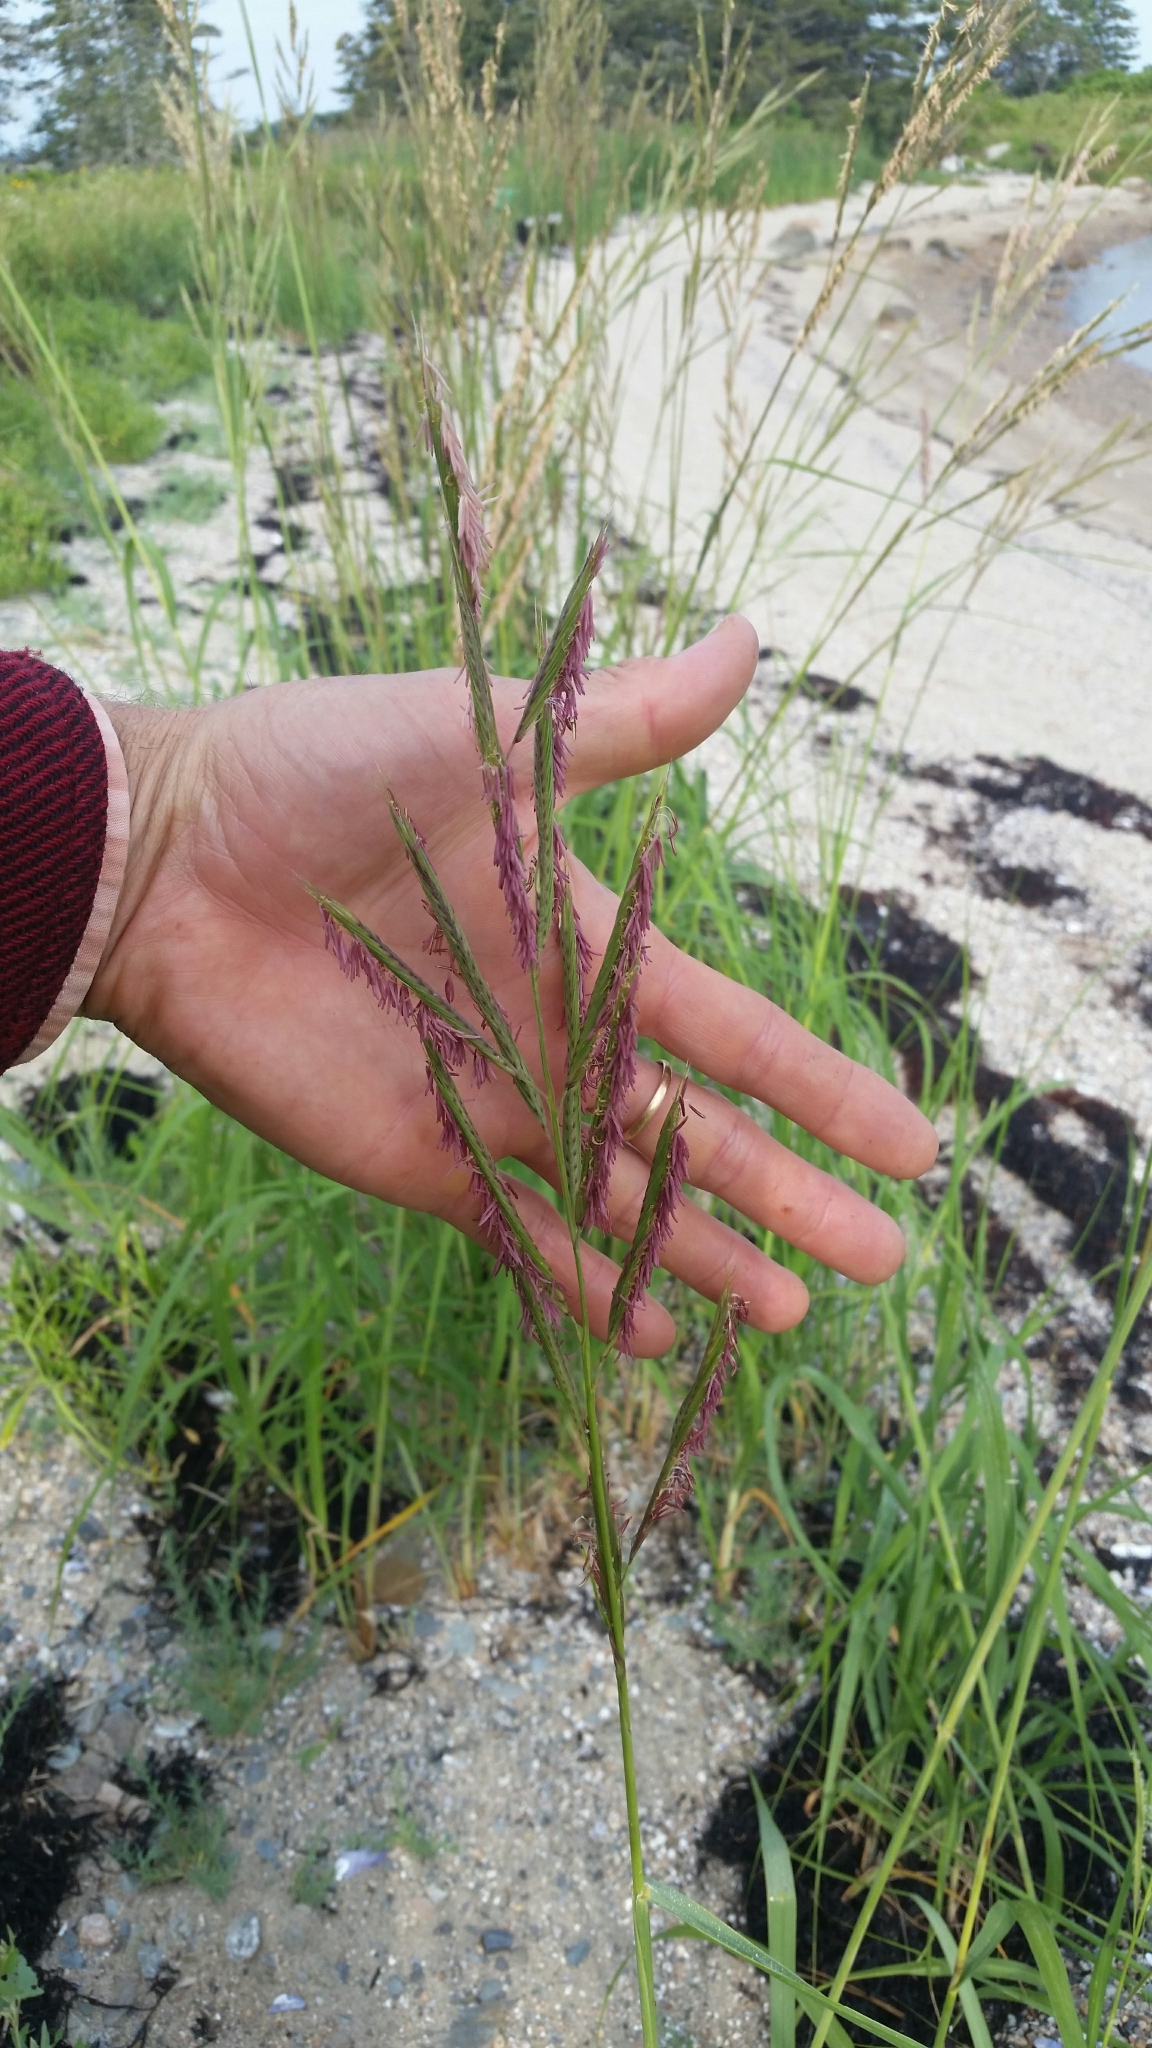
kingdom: Plantae
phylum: Tracheophyta
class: Liliopsida
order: Poales
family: Poaceae
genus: Sporobolus
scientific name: Sporobolus michauxianus
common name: Freshwater cordgrass
